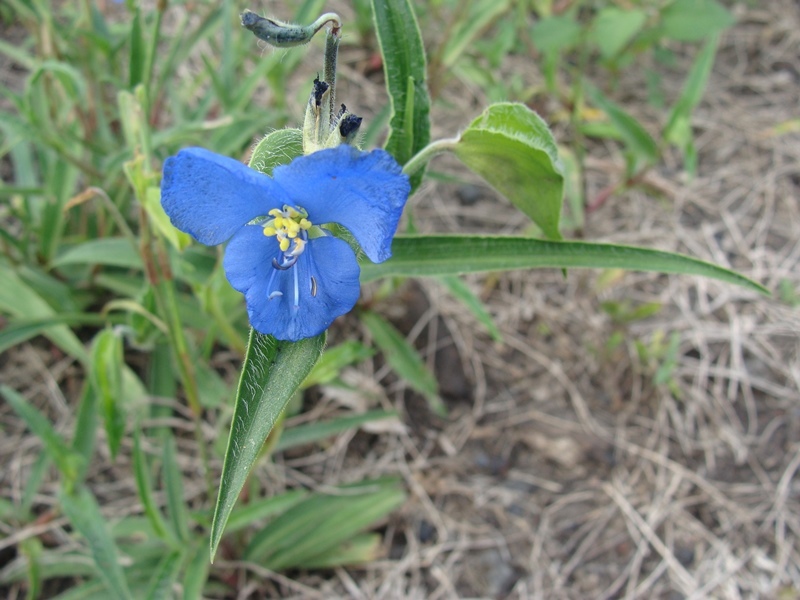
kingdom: Plantae
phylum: Tracheophyta
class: Liliopsida
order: Commelinales
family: Commelinaceae
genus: Commelina
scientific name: Commelina tuberosa
